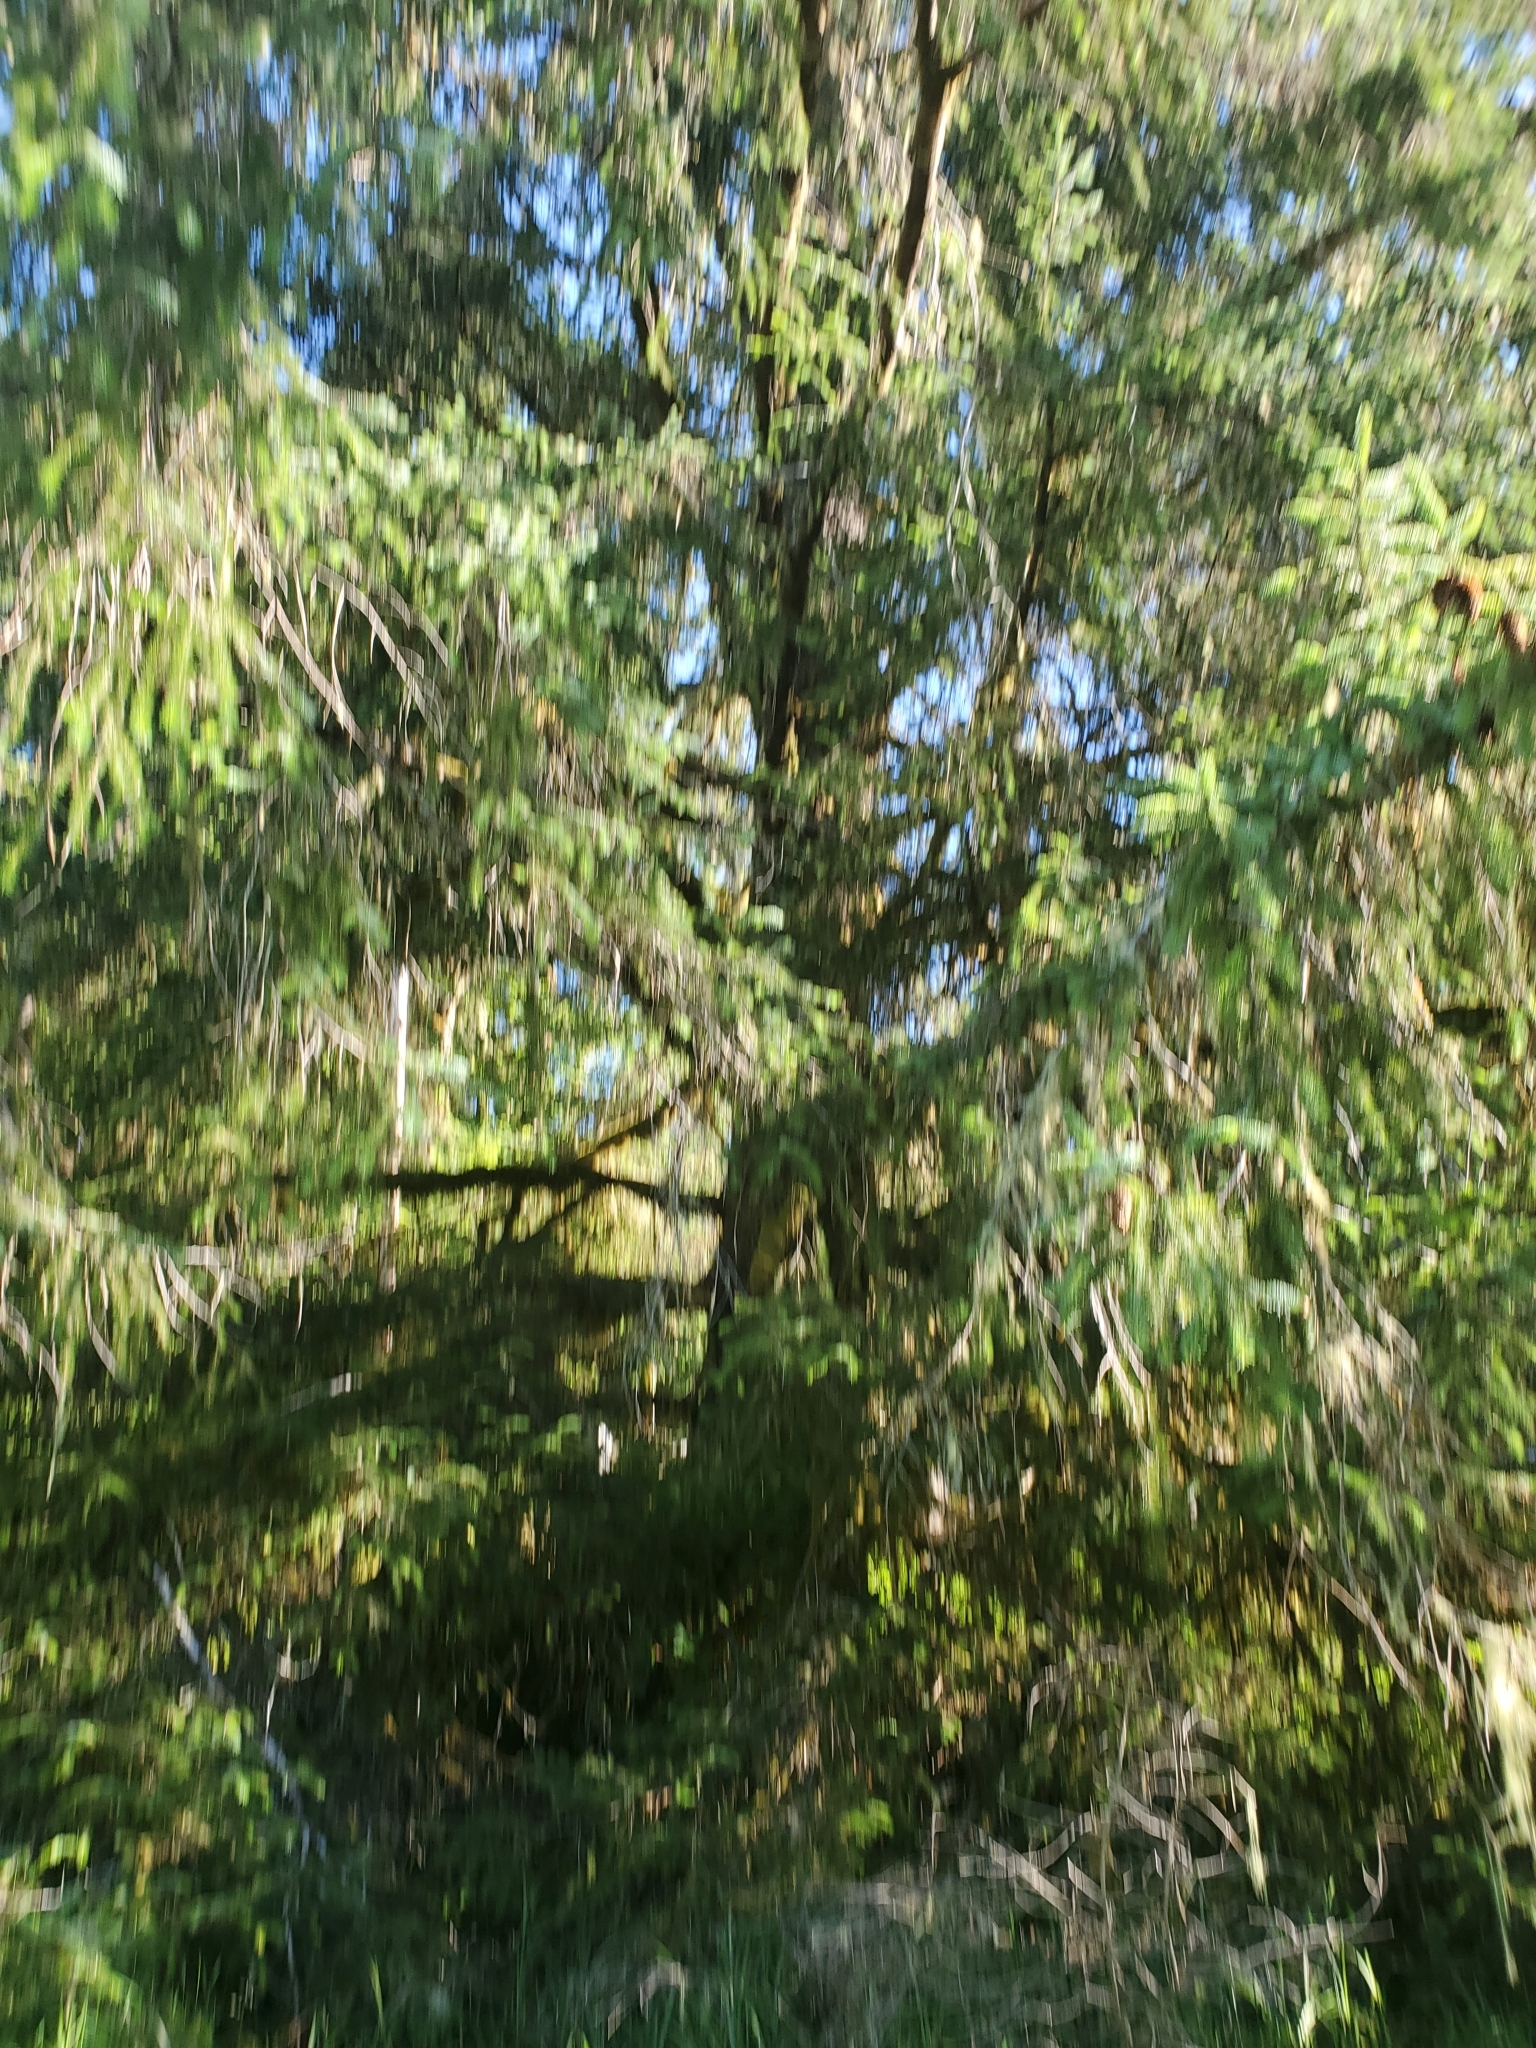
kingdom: Plantae
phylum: Tracheophyta
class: Pinopsida
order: Pinales
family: Pinaceae
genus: Picea
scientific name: Picea sitchensis
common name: Sitka spruce
